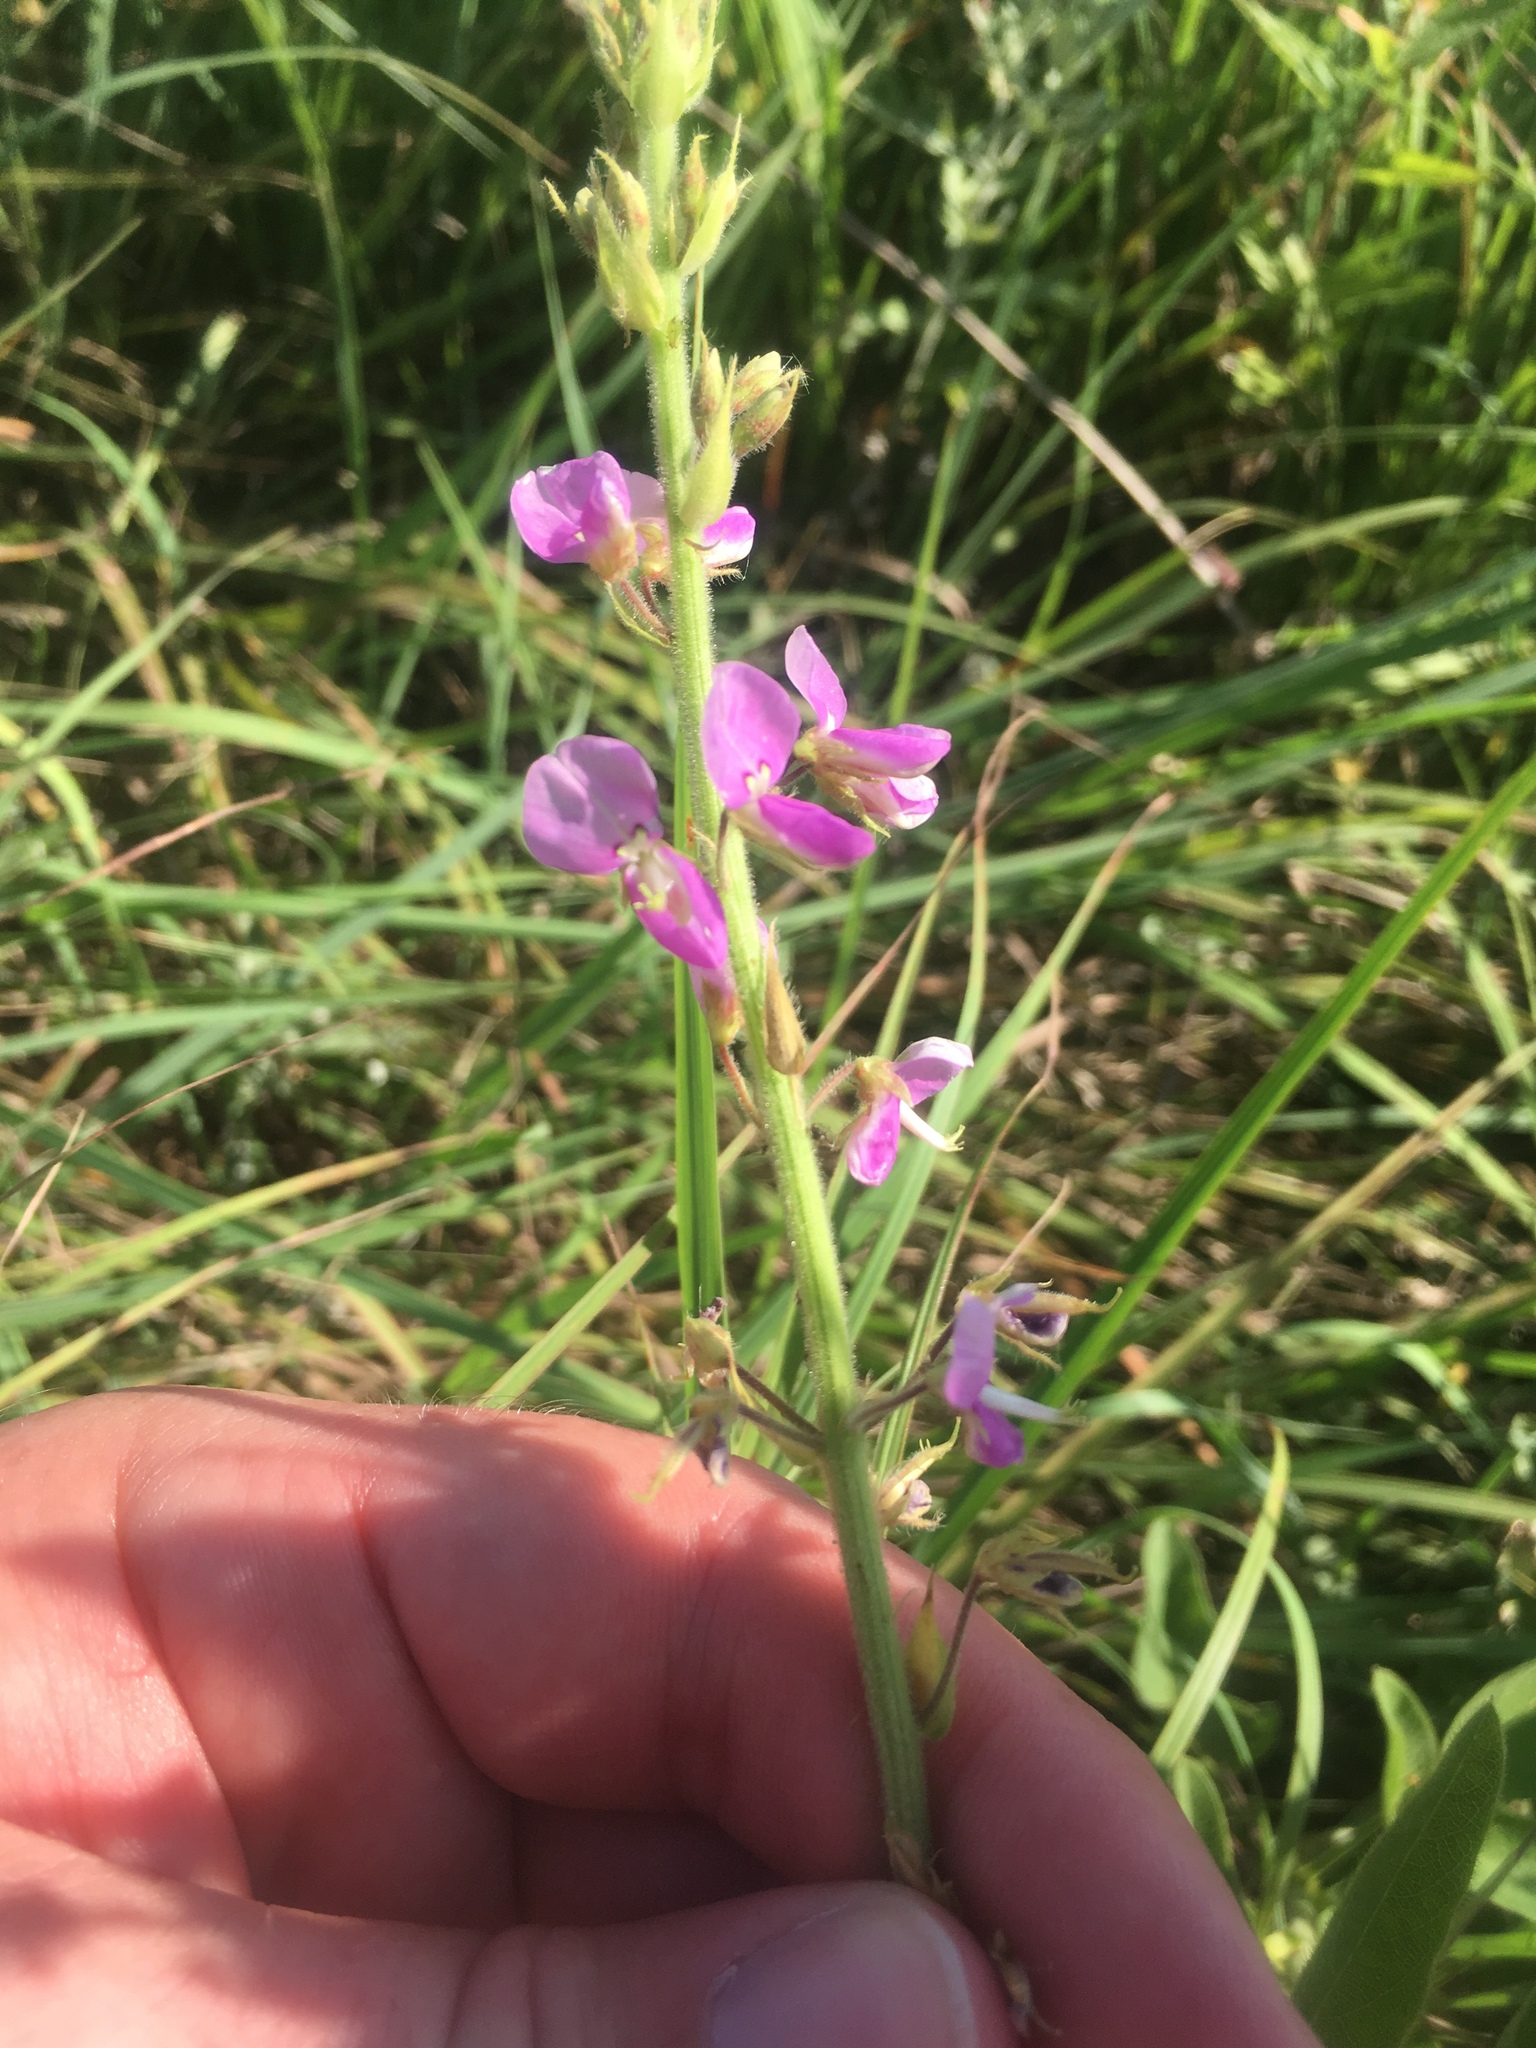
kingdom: Plantae
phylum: Tracheophyta
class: Magnoliopsida
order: Fabales
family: Fabaceae
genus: Desmodium
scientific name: Desmodium illinoense
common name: Illinois tick-clover
